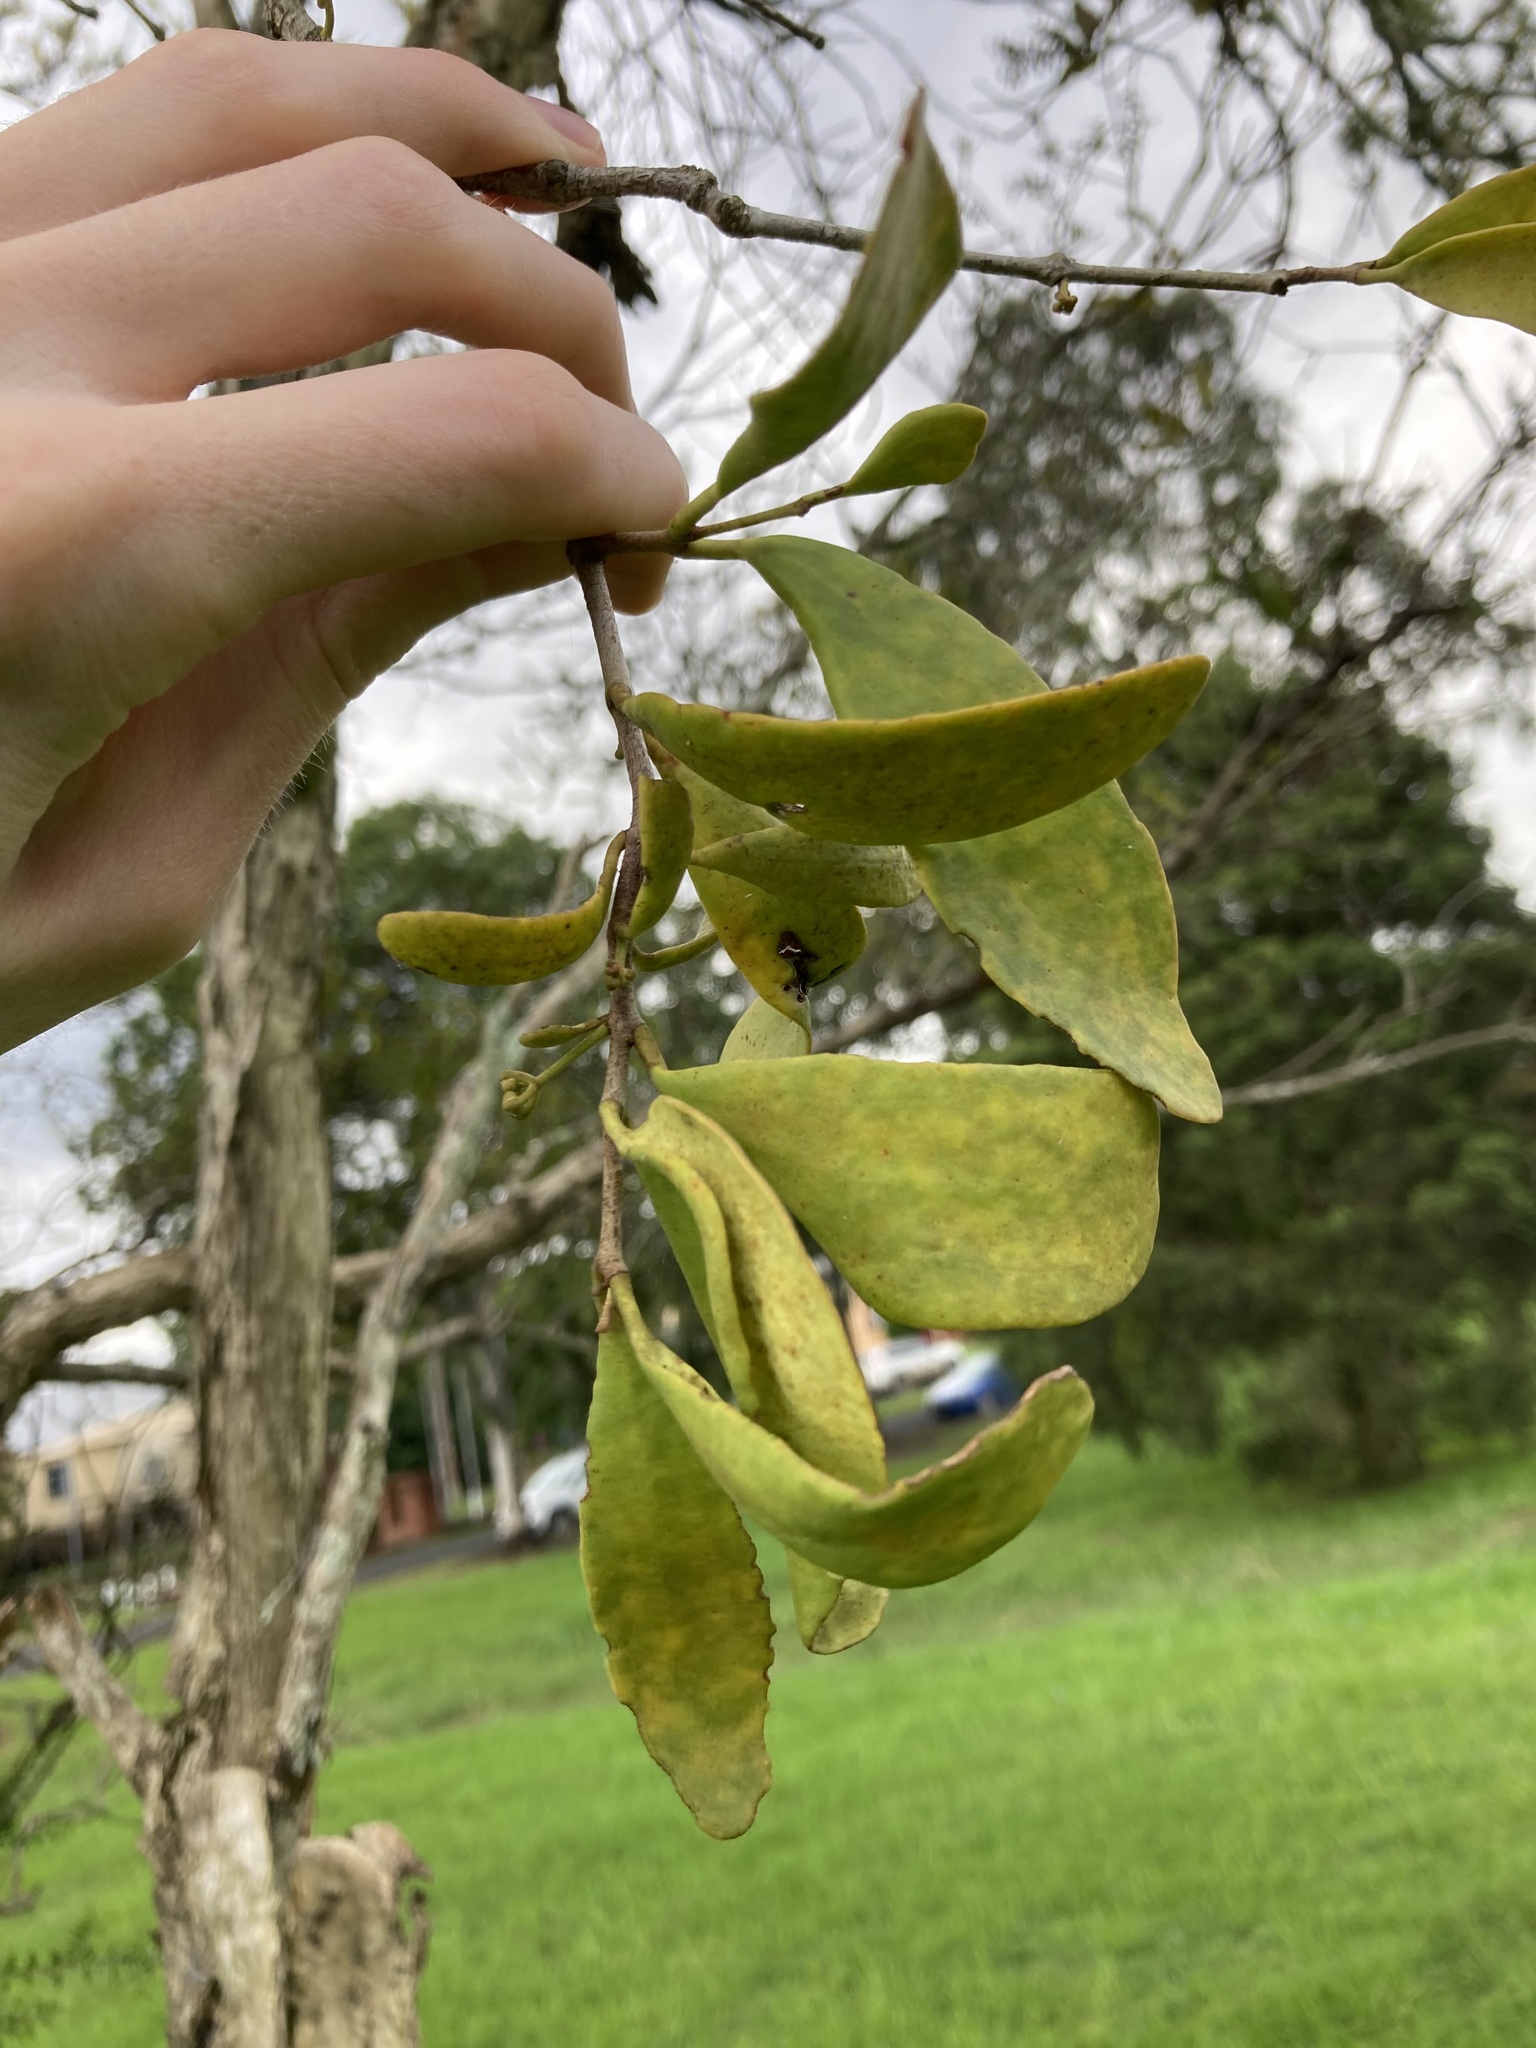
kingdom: Plantae
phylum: Tracheophyta
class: Magnoliopsida
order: Santalales
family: Loranthaceae
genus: Dendrophthoe
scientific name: Dendrophthoe vitellina
